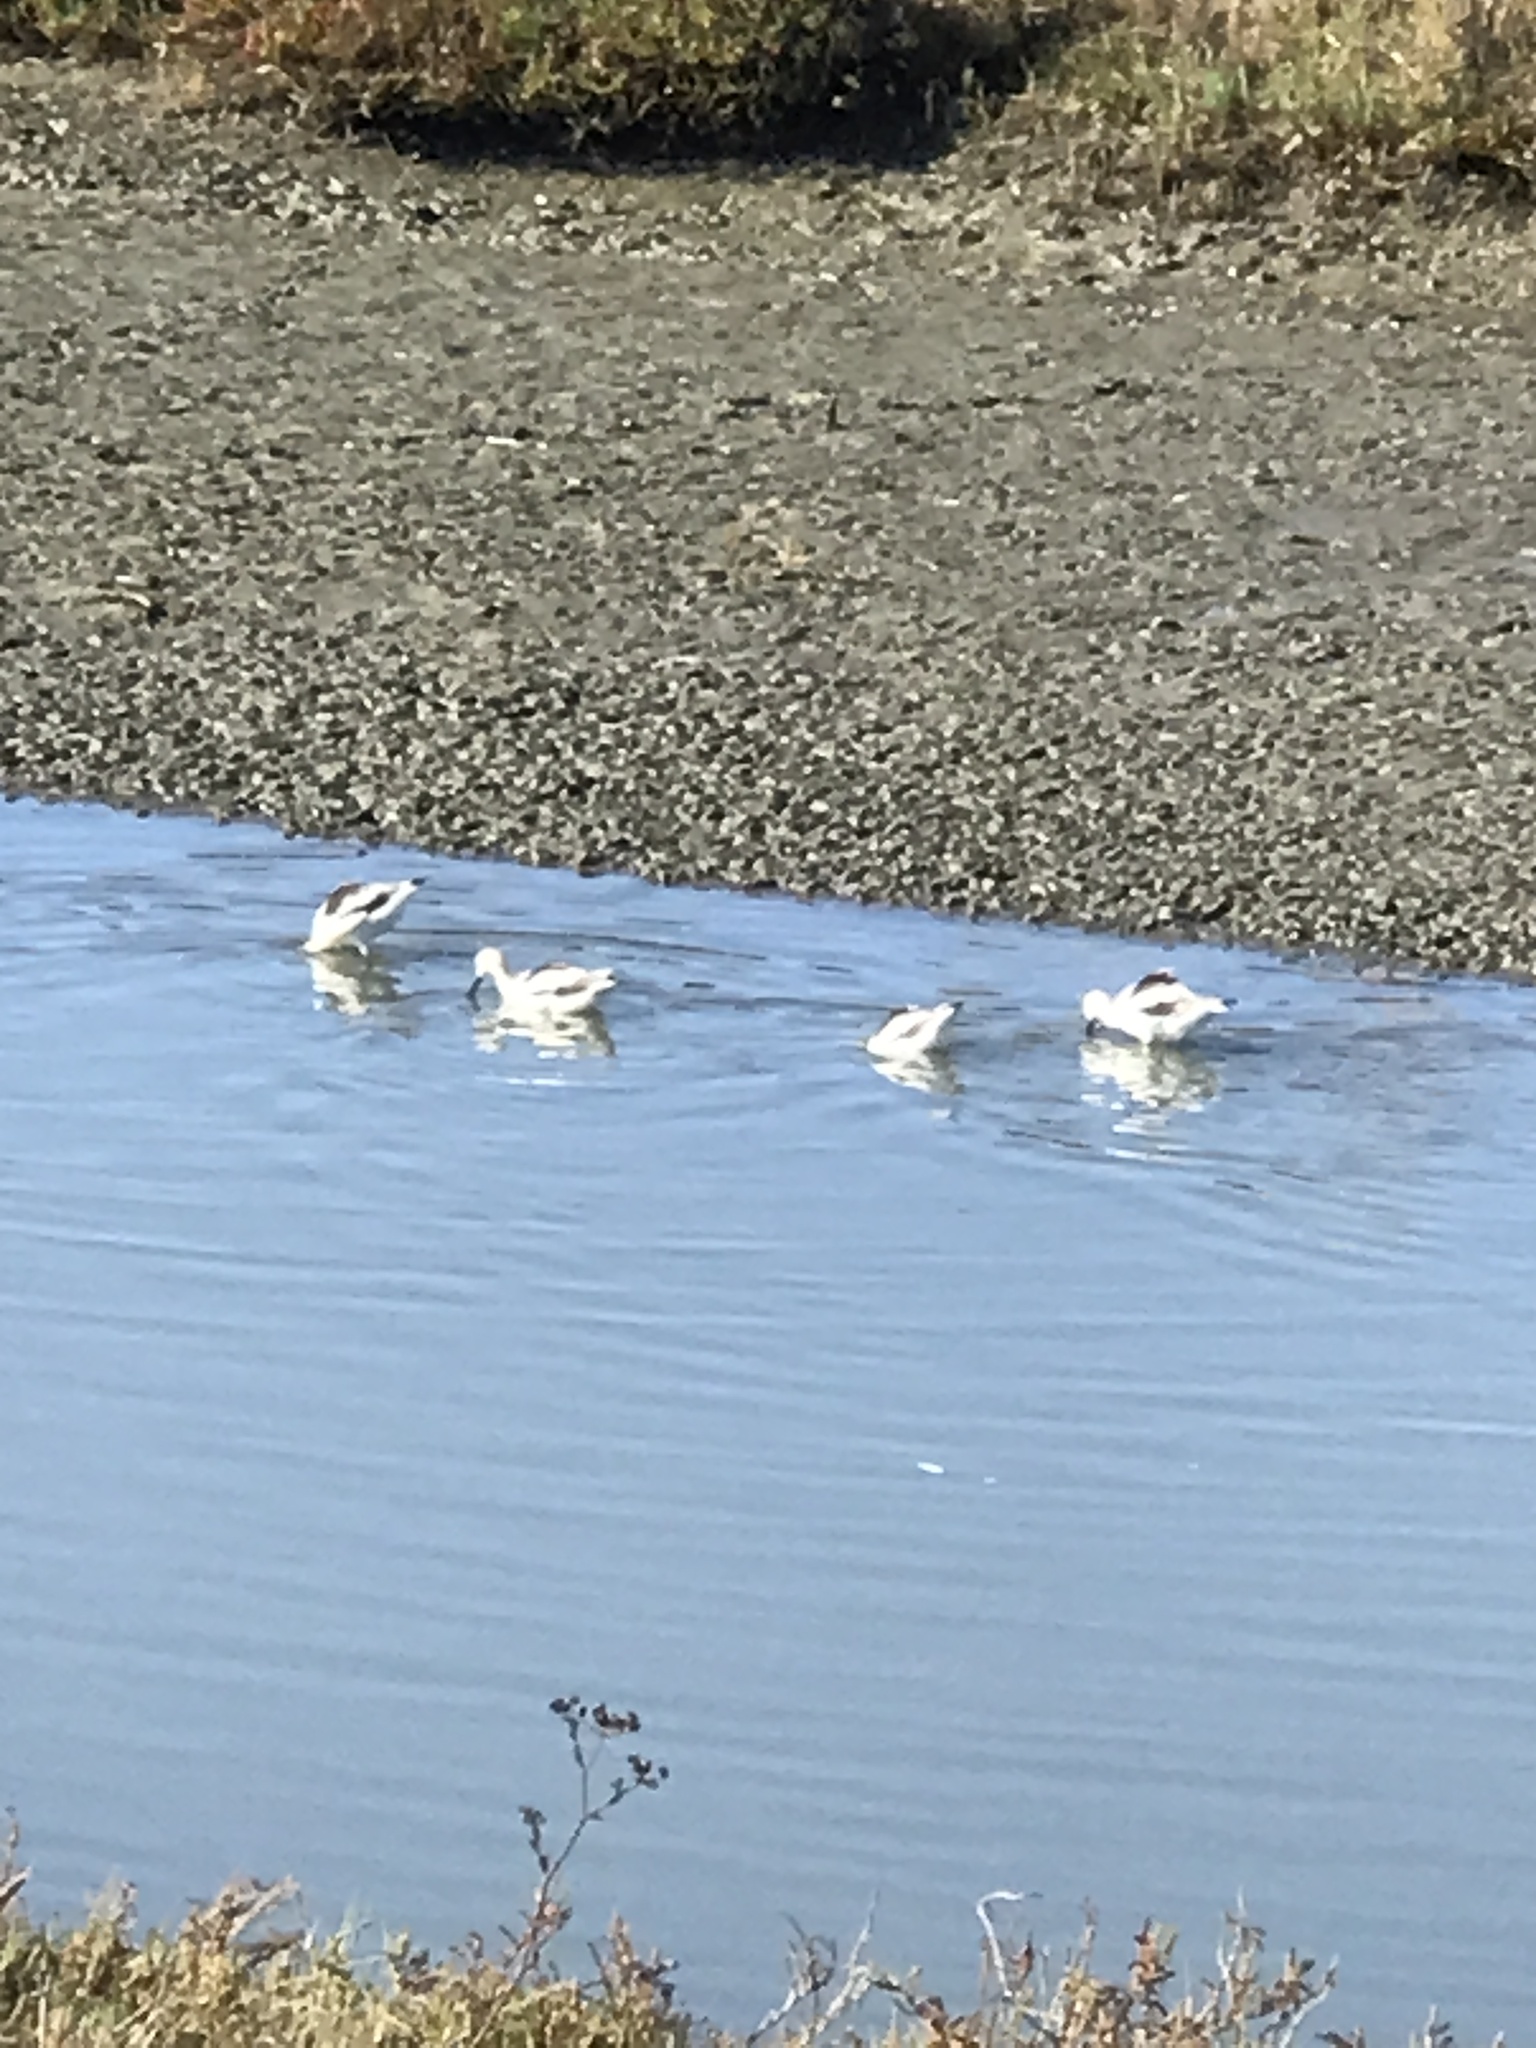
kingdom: Animalia
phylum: Chordata
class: Aves
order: Charadriiformes
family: Recurvirostridae
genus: Recurvirostra
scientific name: Recurvirostra americana
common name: American avocet
